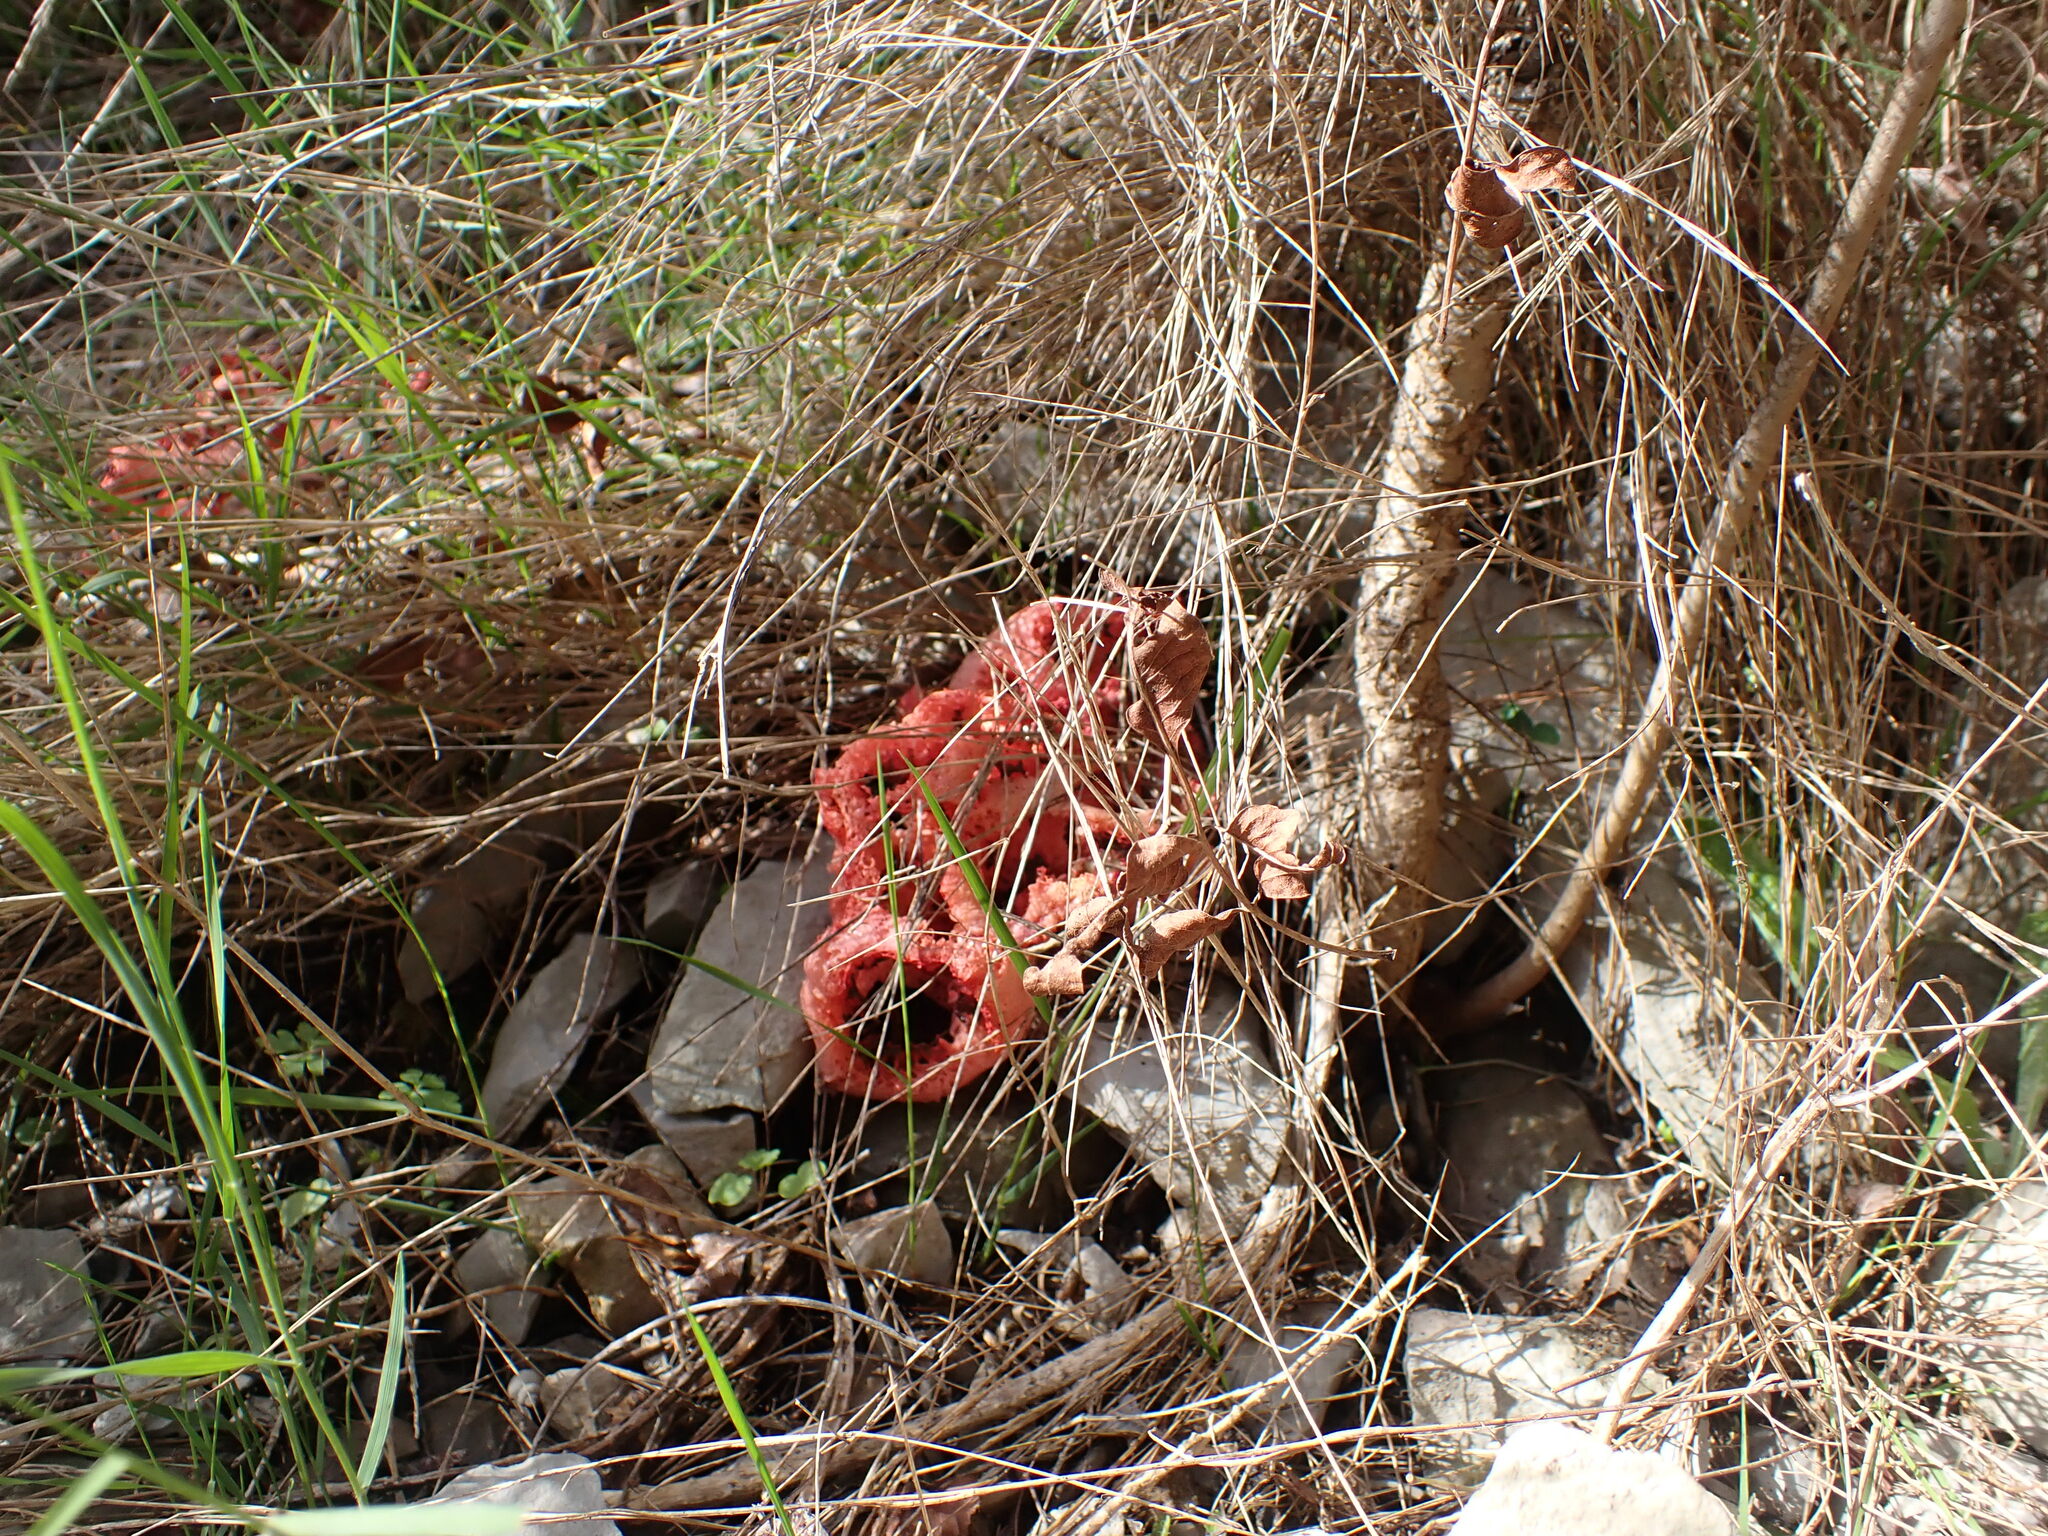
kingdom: Fungi
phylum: Basidiomycota
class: Agaricomycetes
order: Phallales
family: Phallaceae
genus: Clathrus
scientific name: Clathrus ruber
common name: Red cage
